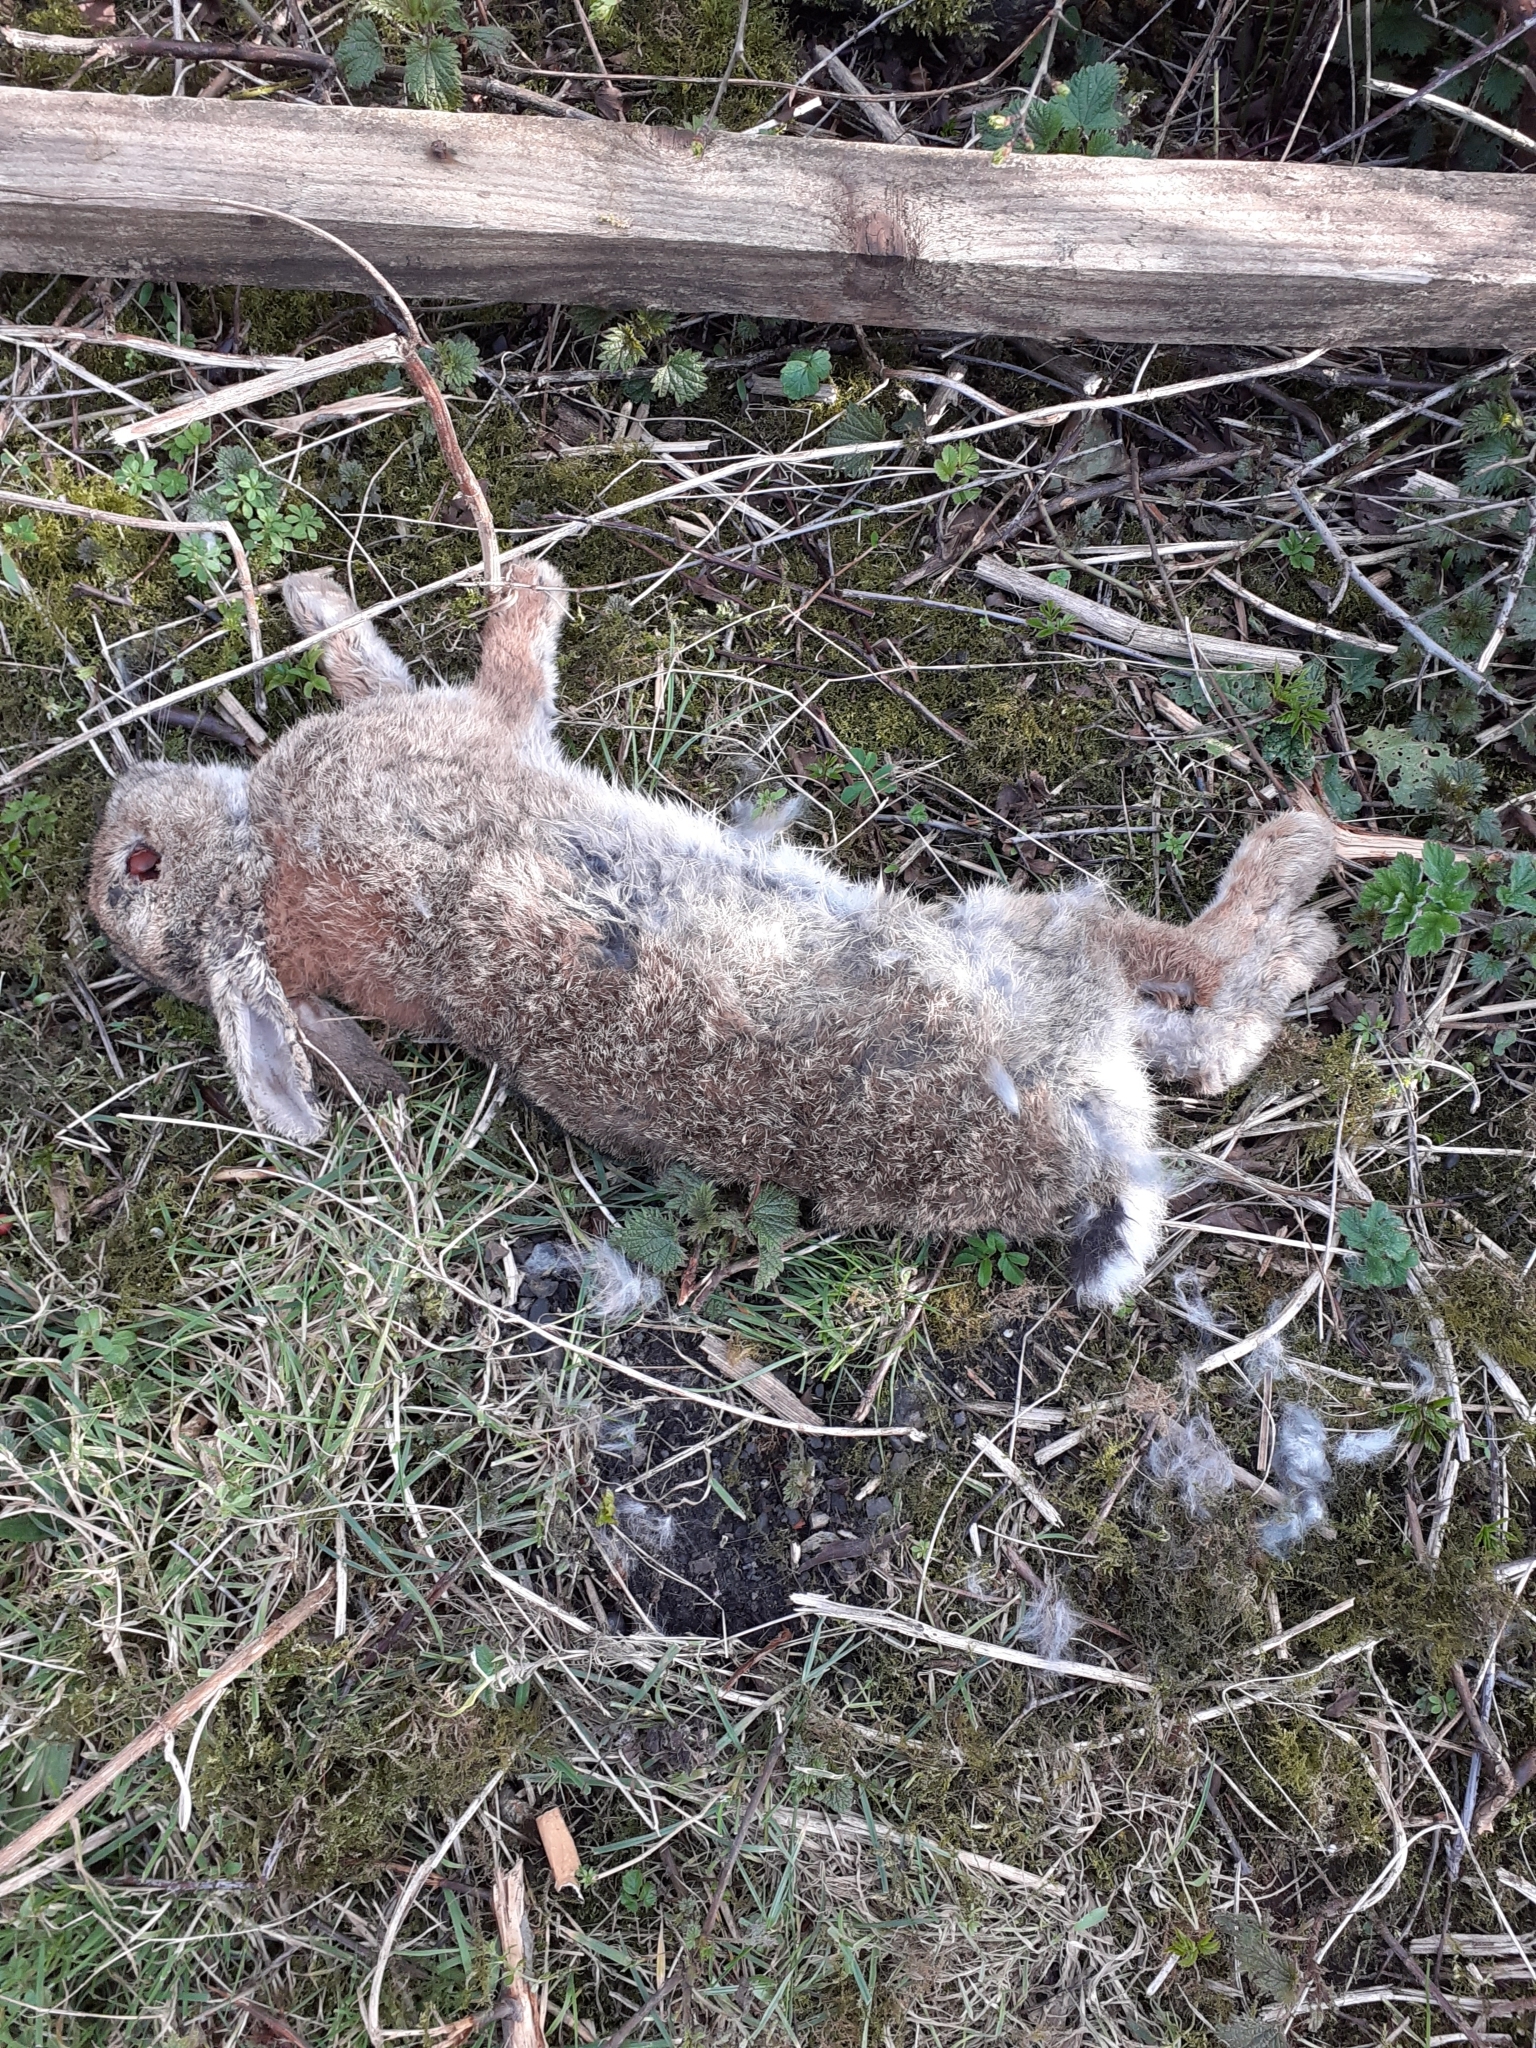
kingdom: Animalia
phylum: Chordata
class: Mammalia
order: Lagomorpha
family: Leporidae
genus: Oryctolagus
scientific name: Oryctolagus cuniculus
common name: European rabbit
